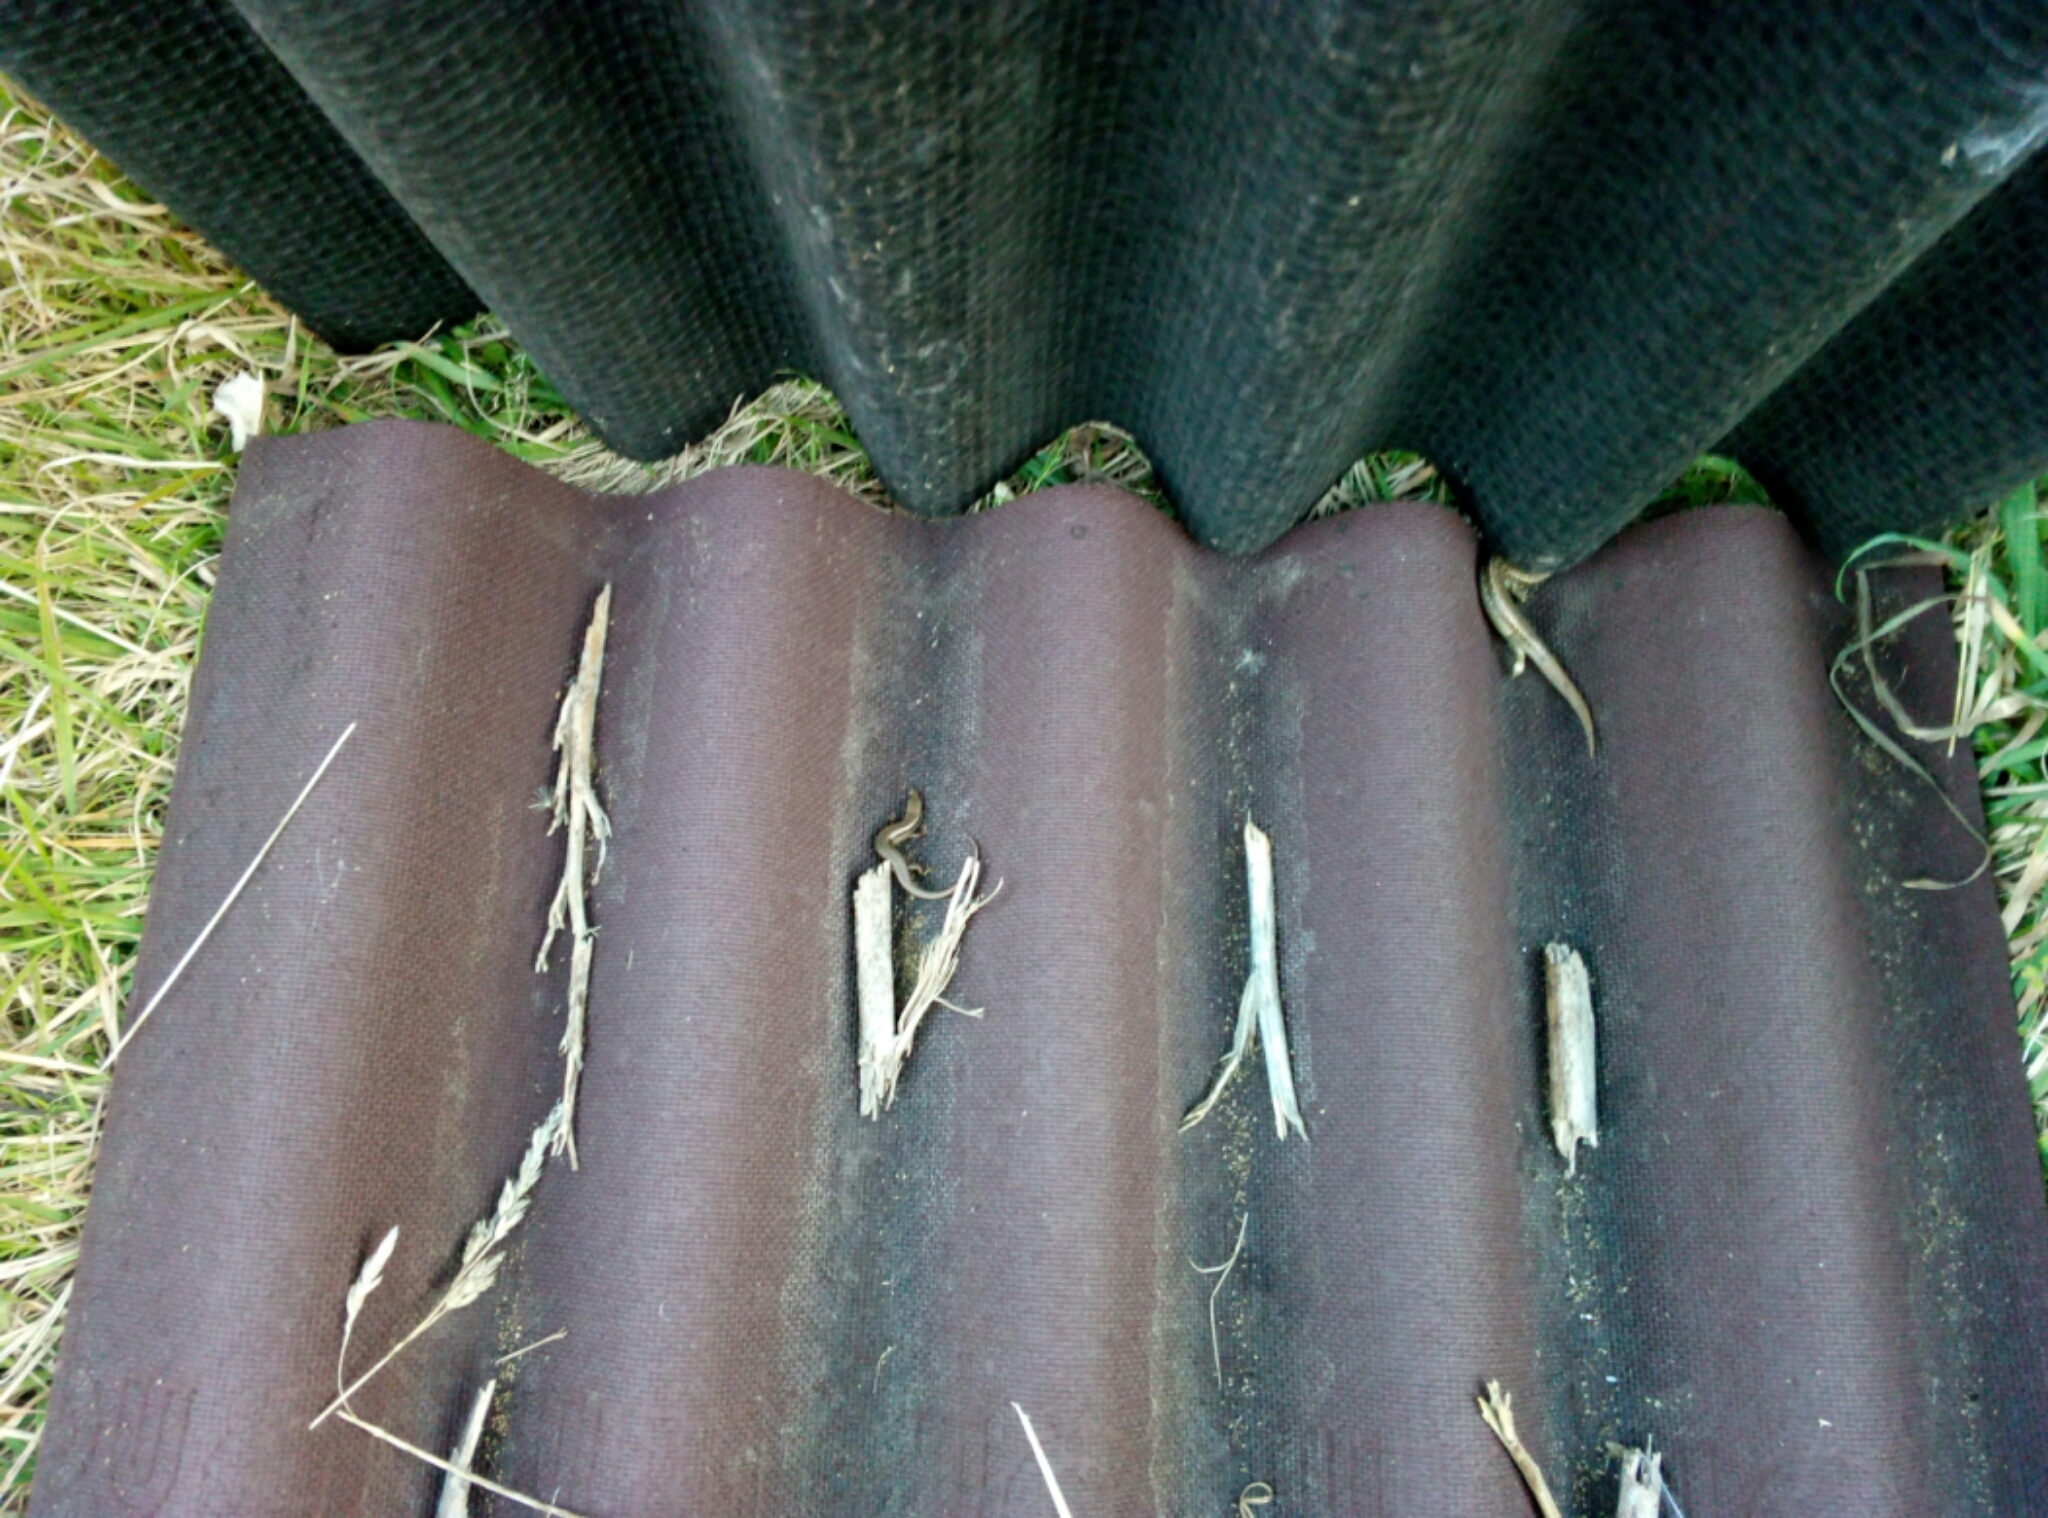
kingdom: Animalia
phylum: Chordata
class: Squamata
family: Scincidae
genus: Oligosoma
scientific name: Oligosoma polychroma
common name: Common new zealand skink
